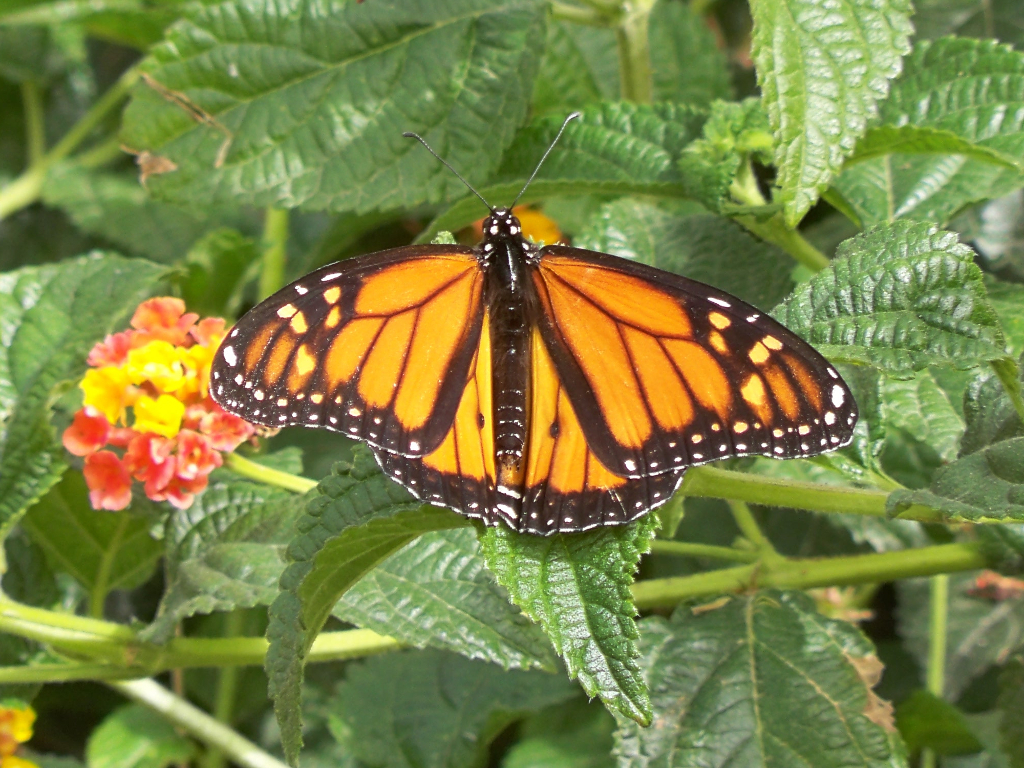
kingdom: Animalia
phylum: Arthropoda
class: Insecta
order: Lepidoptera
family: Nymphalidae
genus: Danaus
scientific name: Danaus plexippus
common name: Monarch
